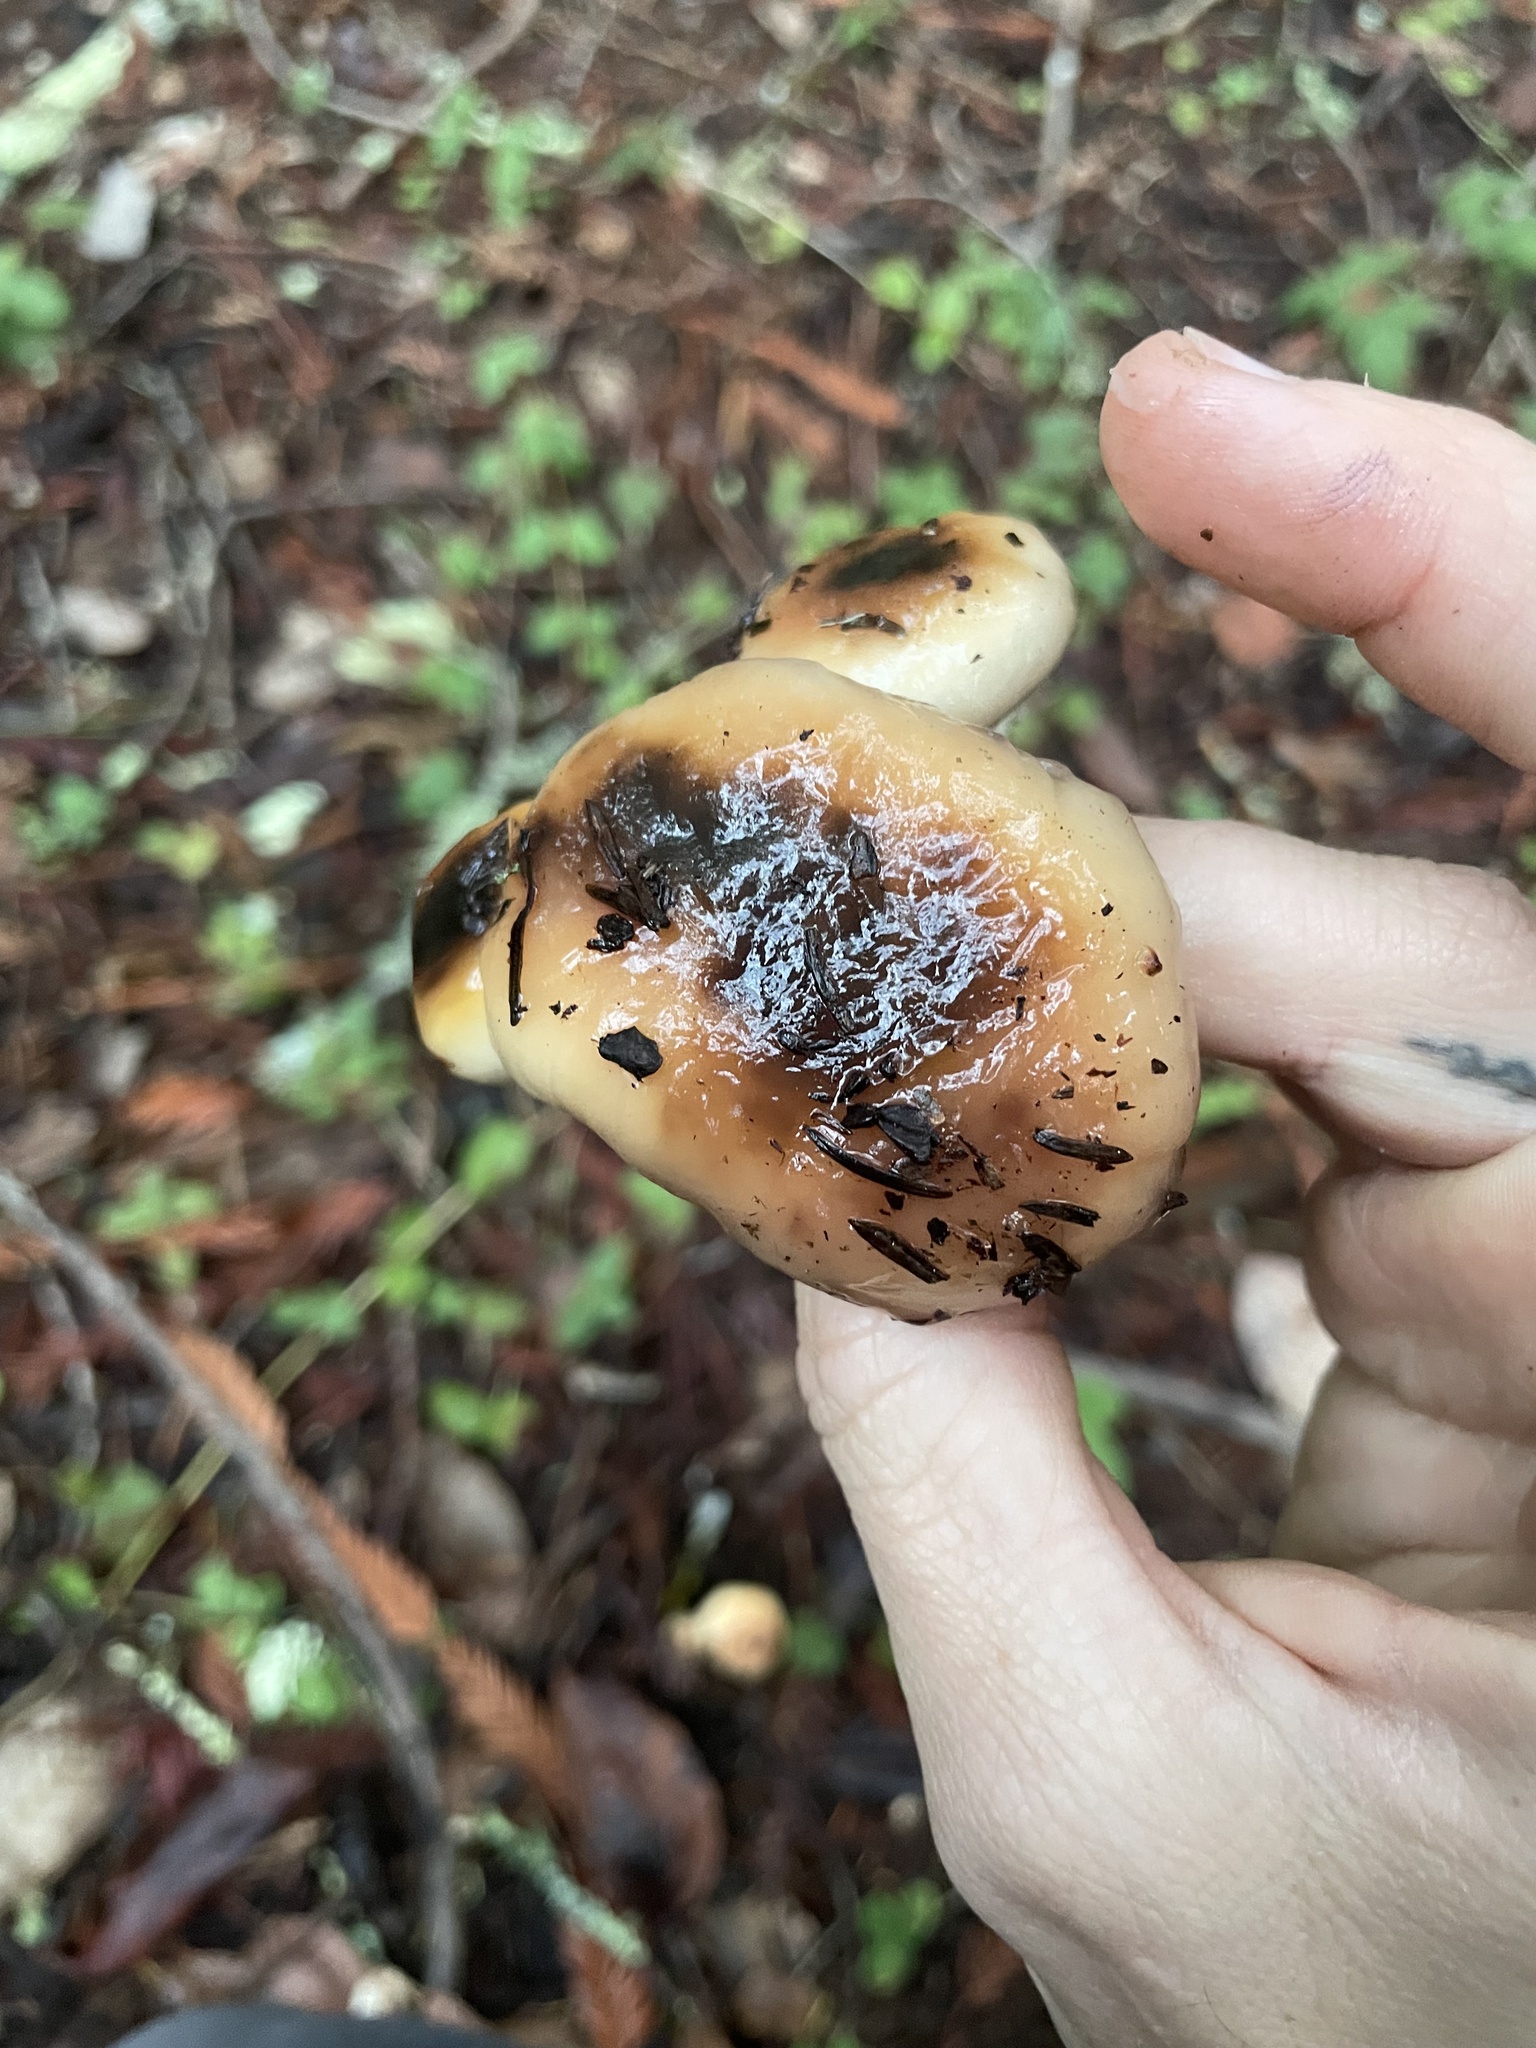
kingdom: Fungi
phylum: Basidiomycota
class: Agaricomycetes
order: Boletales
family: Gomphidiaceae
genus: Gomphidius
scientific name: Gomphidius oregonensis
